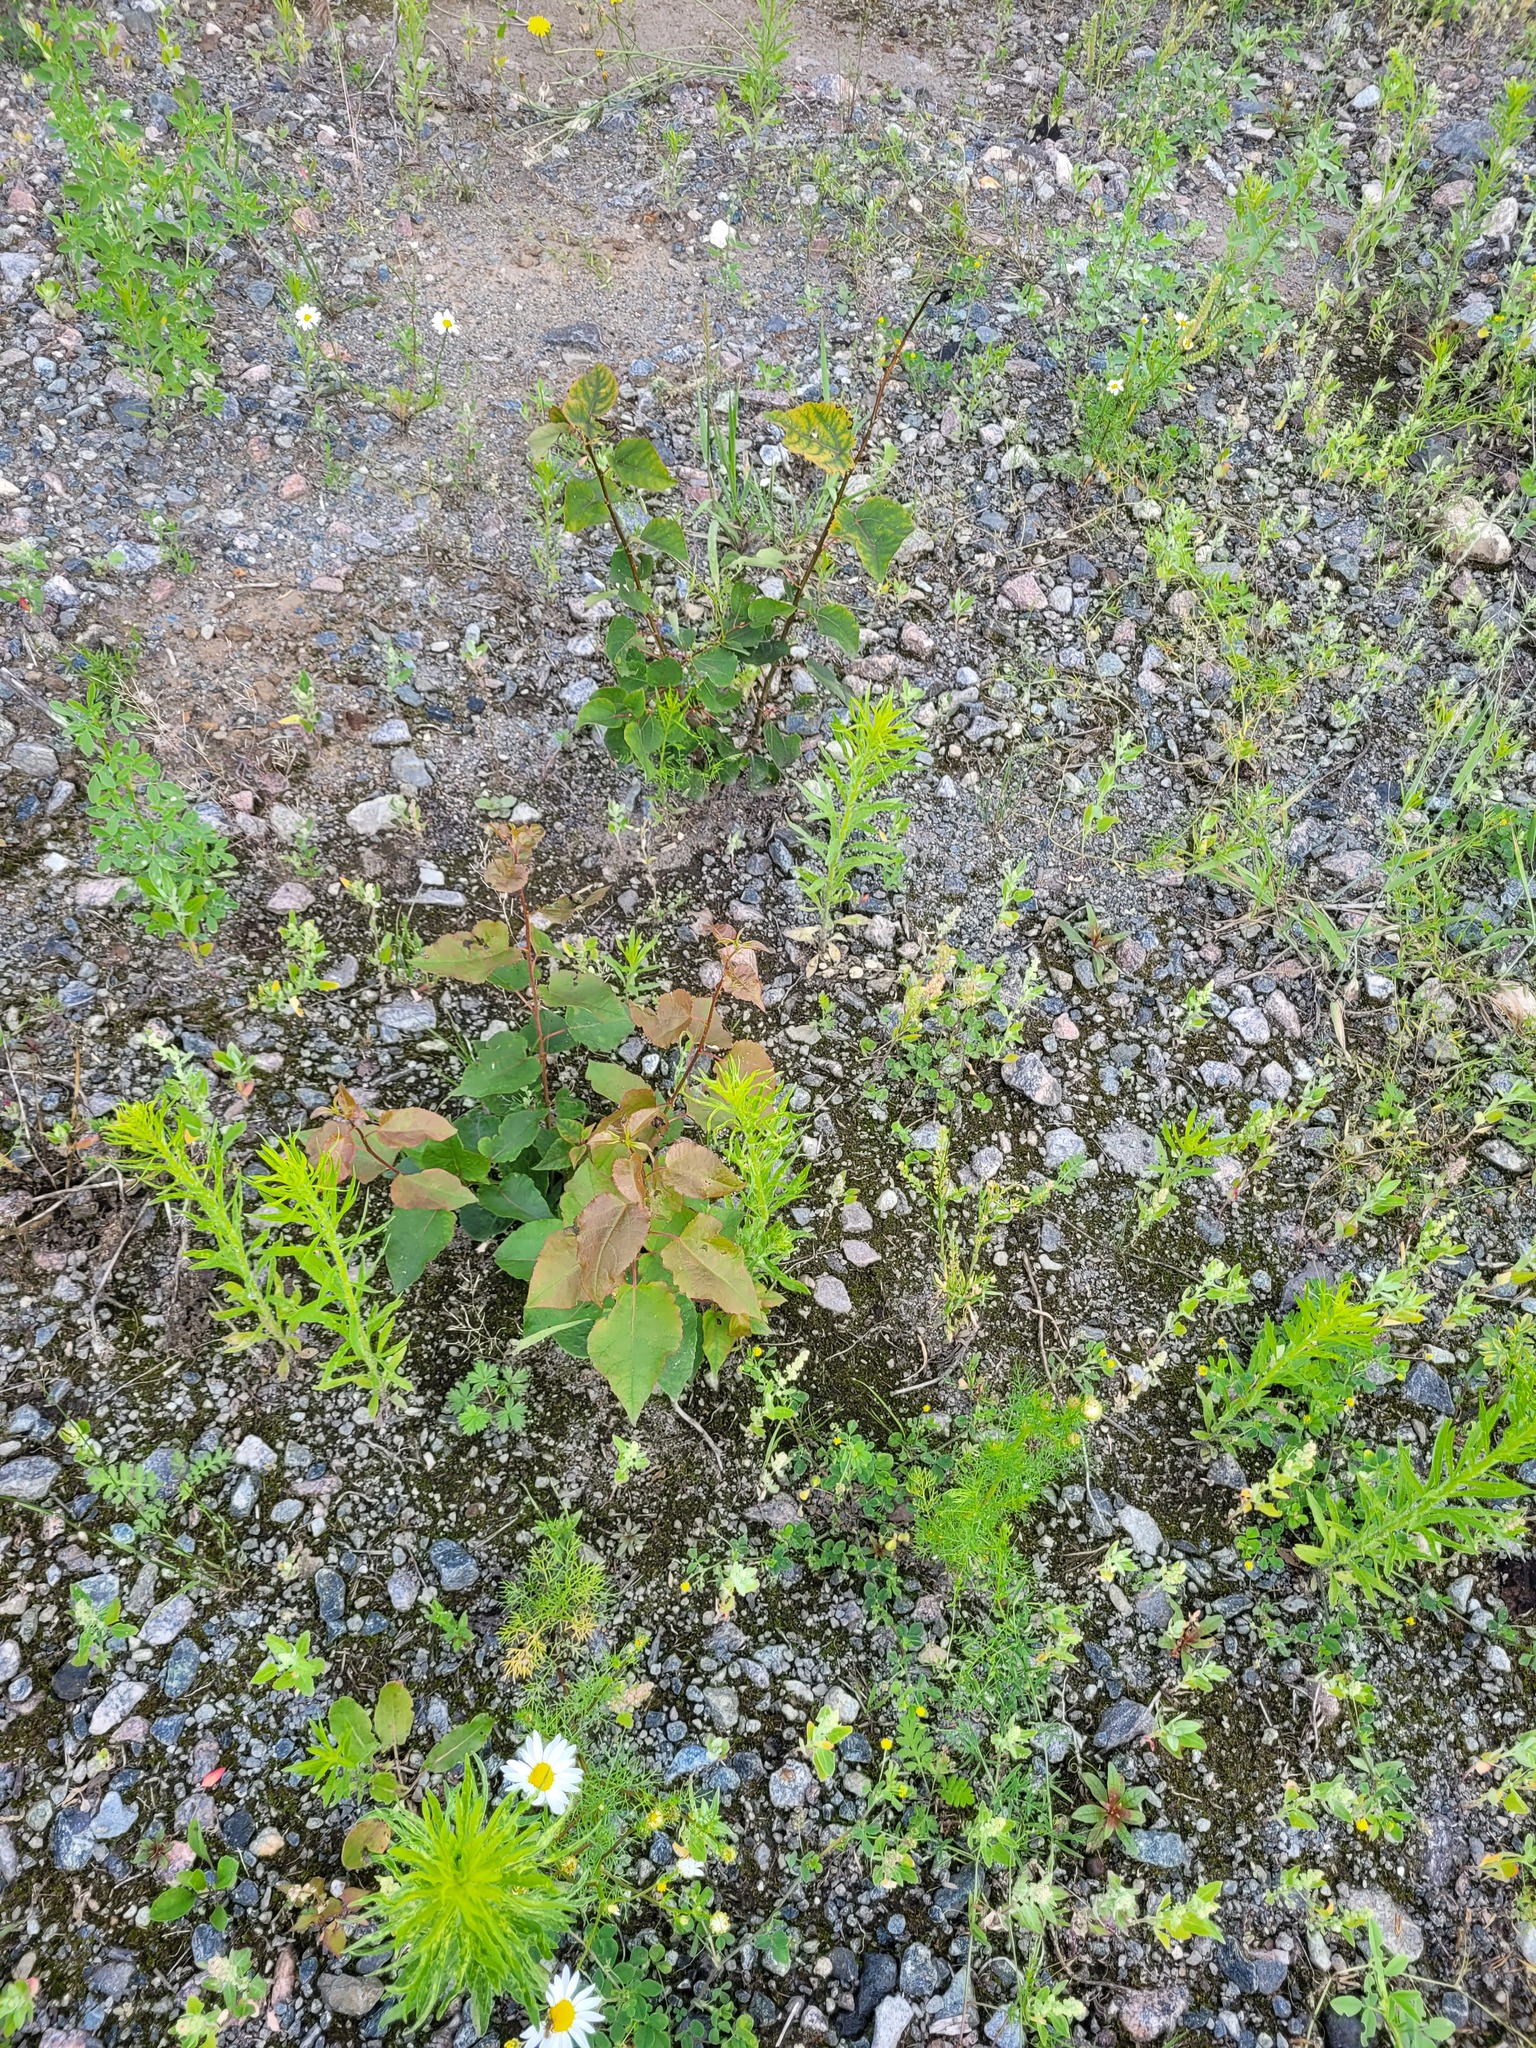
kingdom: Plantae
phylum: Tracheophyta
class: Magnoliopsida
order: Malpighiales
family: Salicaceae
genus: Populus
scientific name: Populus tremula
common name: European aspen
